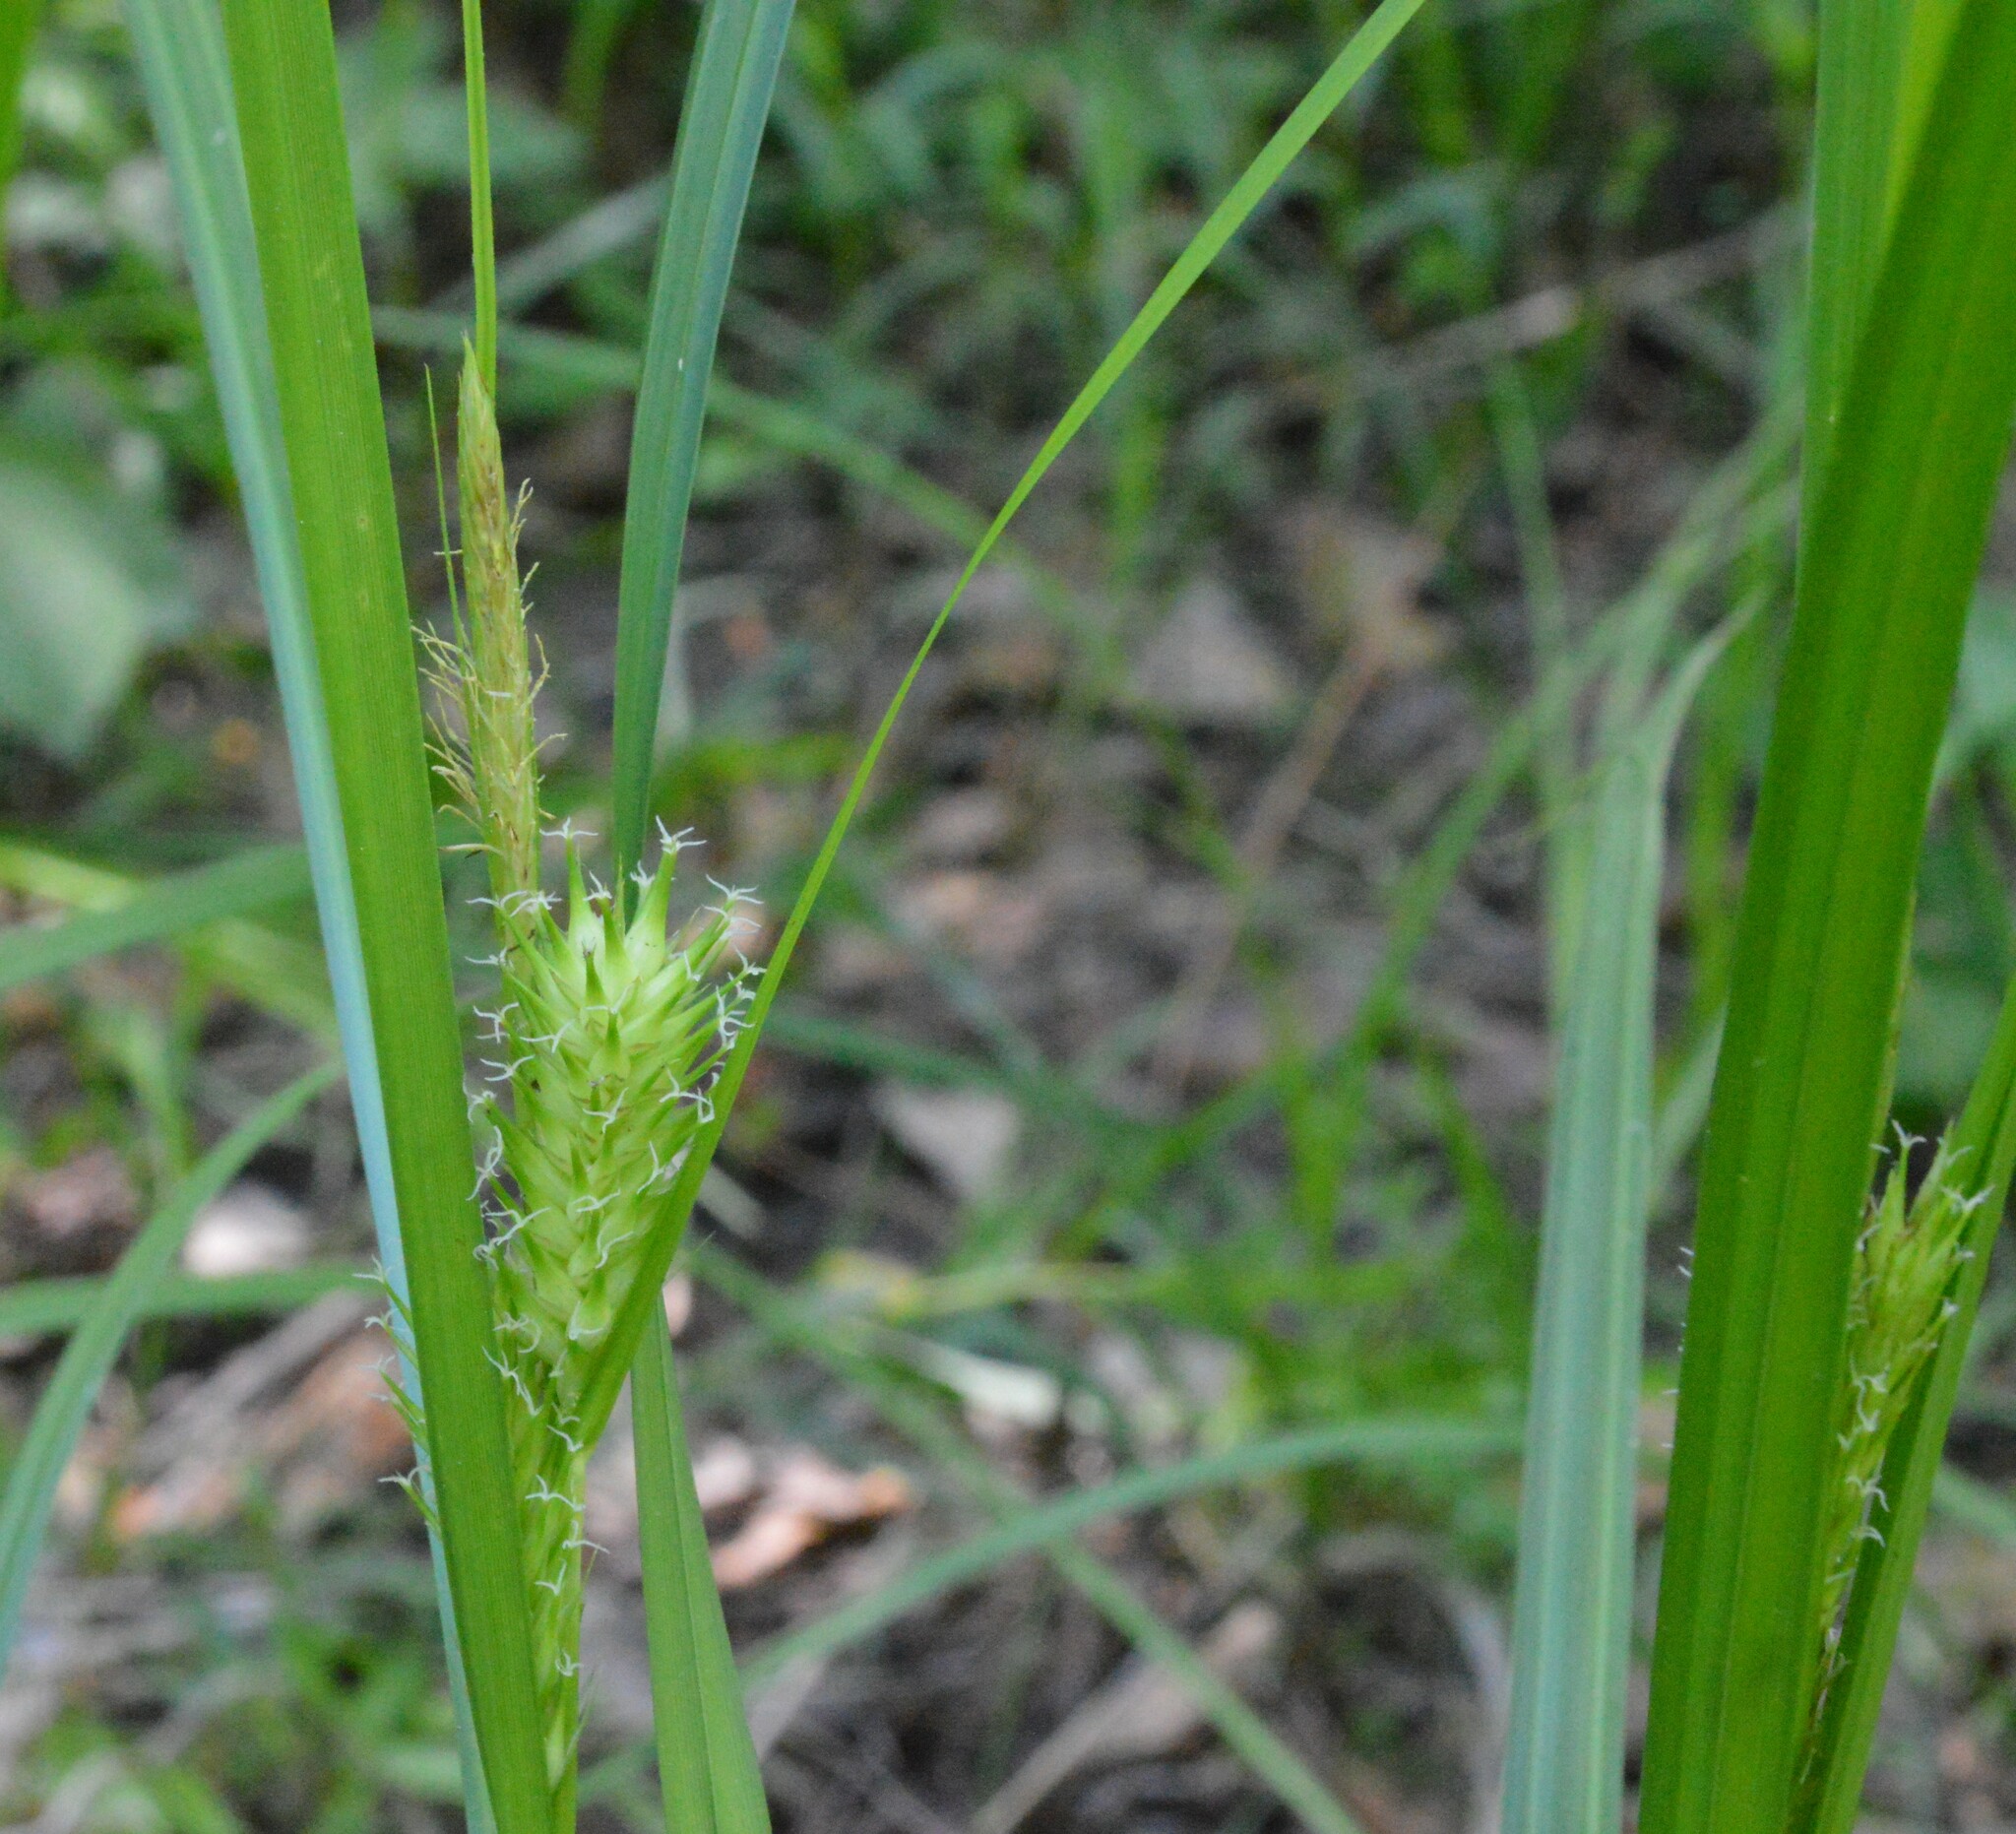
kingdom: Plantae
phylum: Tracheophyta
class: Liliopsida
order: Poales
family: Cyperaceae
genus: Carex
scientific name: Carex lupulina
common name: Hop sedge
